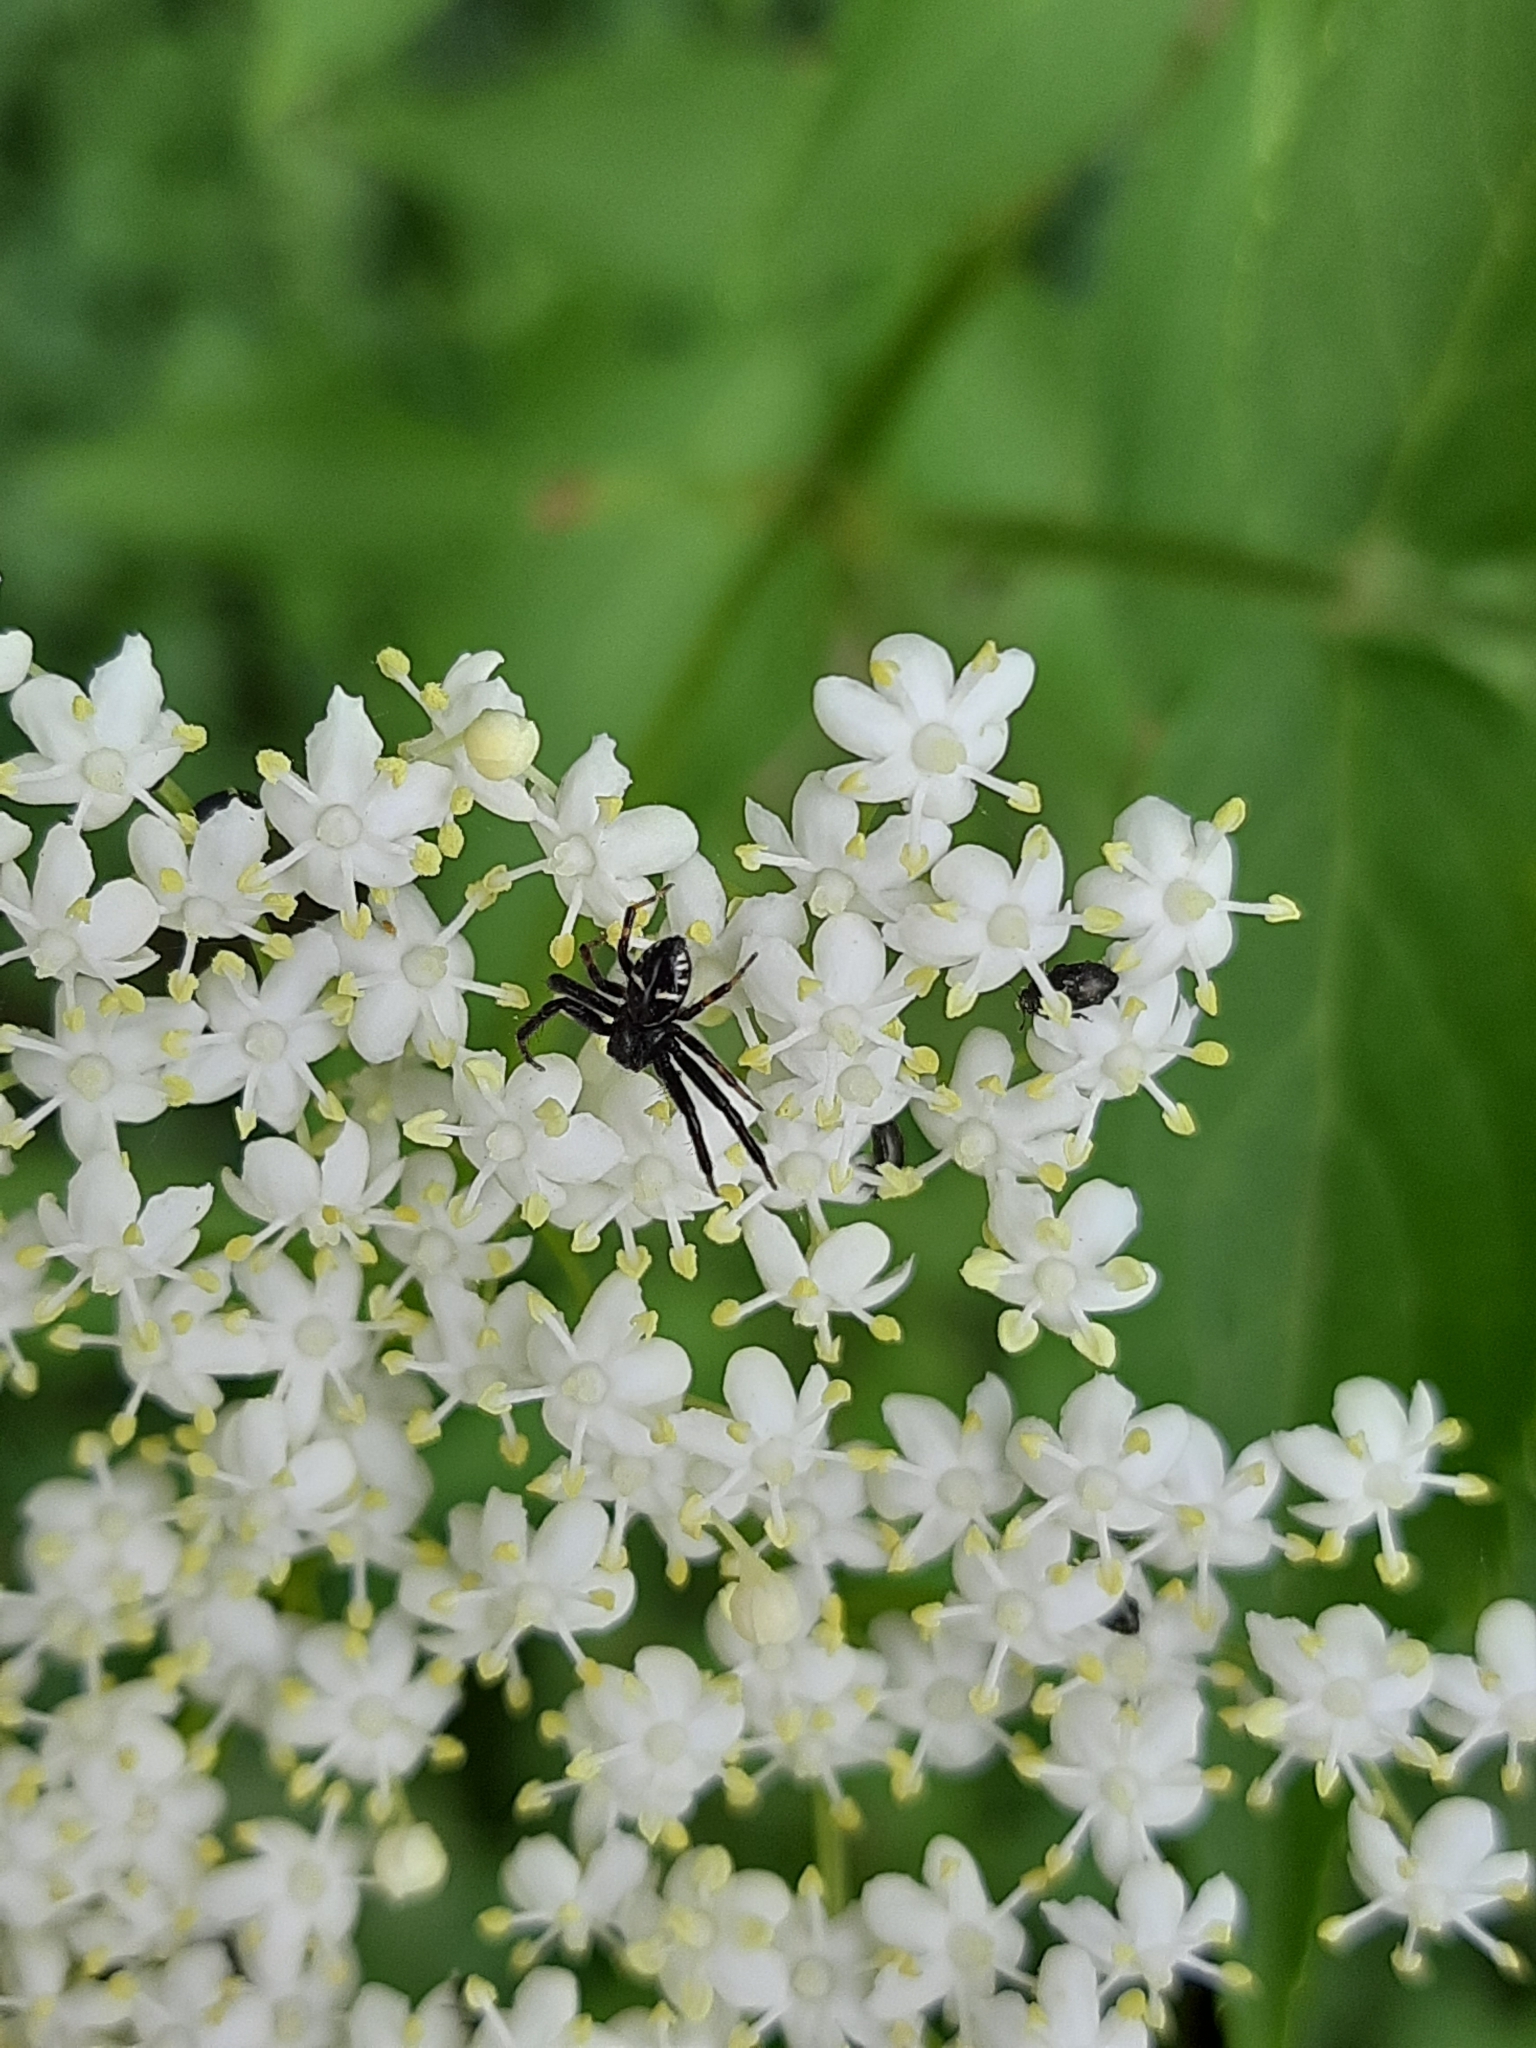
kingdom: Animalia
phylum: Arthropoda
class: Arachnida
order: Araneae
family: Thomisidae
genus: Synema
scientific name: Synema globosum
